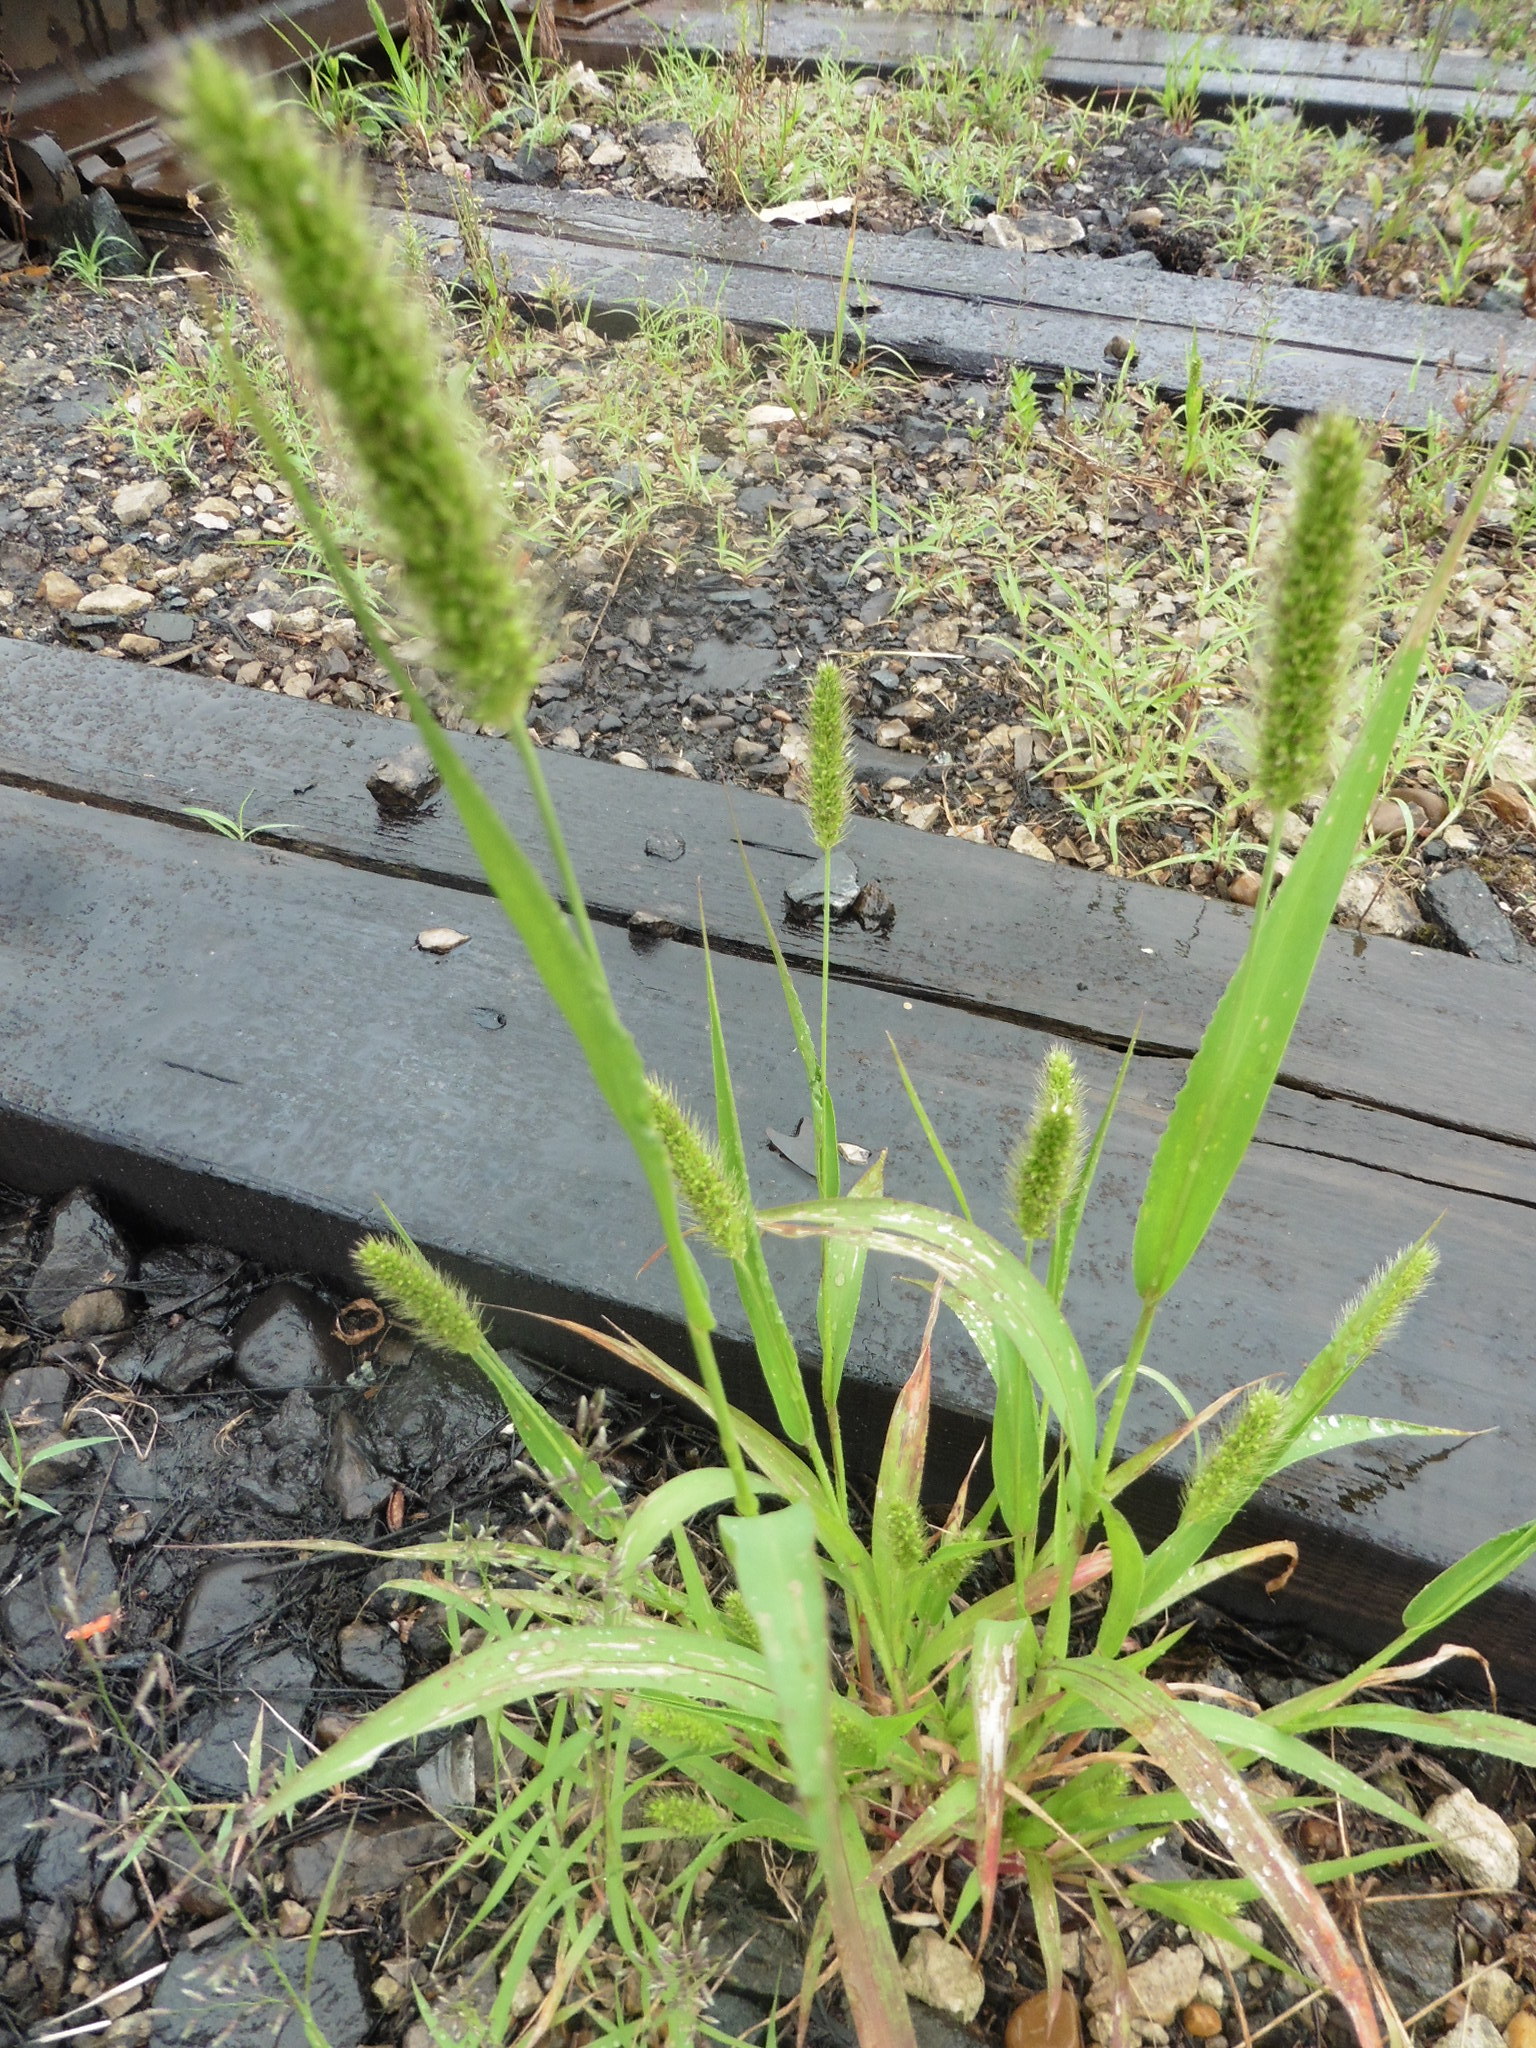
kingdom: Plantae
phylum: Tracheophyta
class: Liliopsida
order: Poales
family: Poaceae
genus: Setaria
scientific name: Setaria viridis
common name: Green bristlegrass
